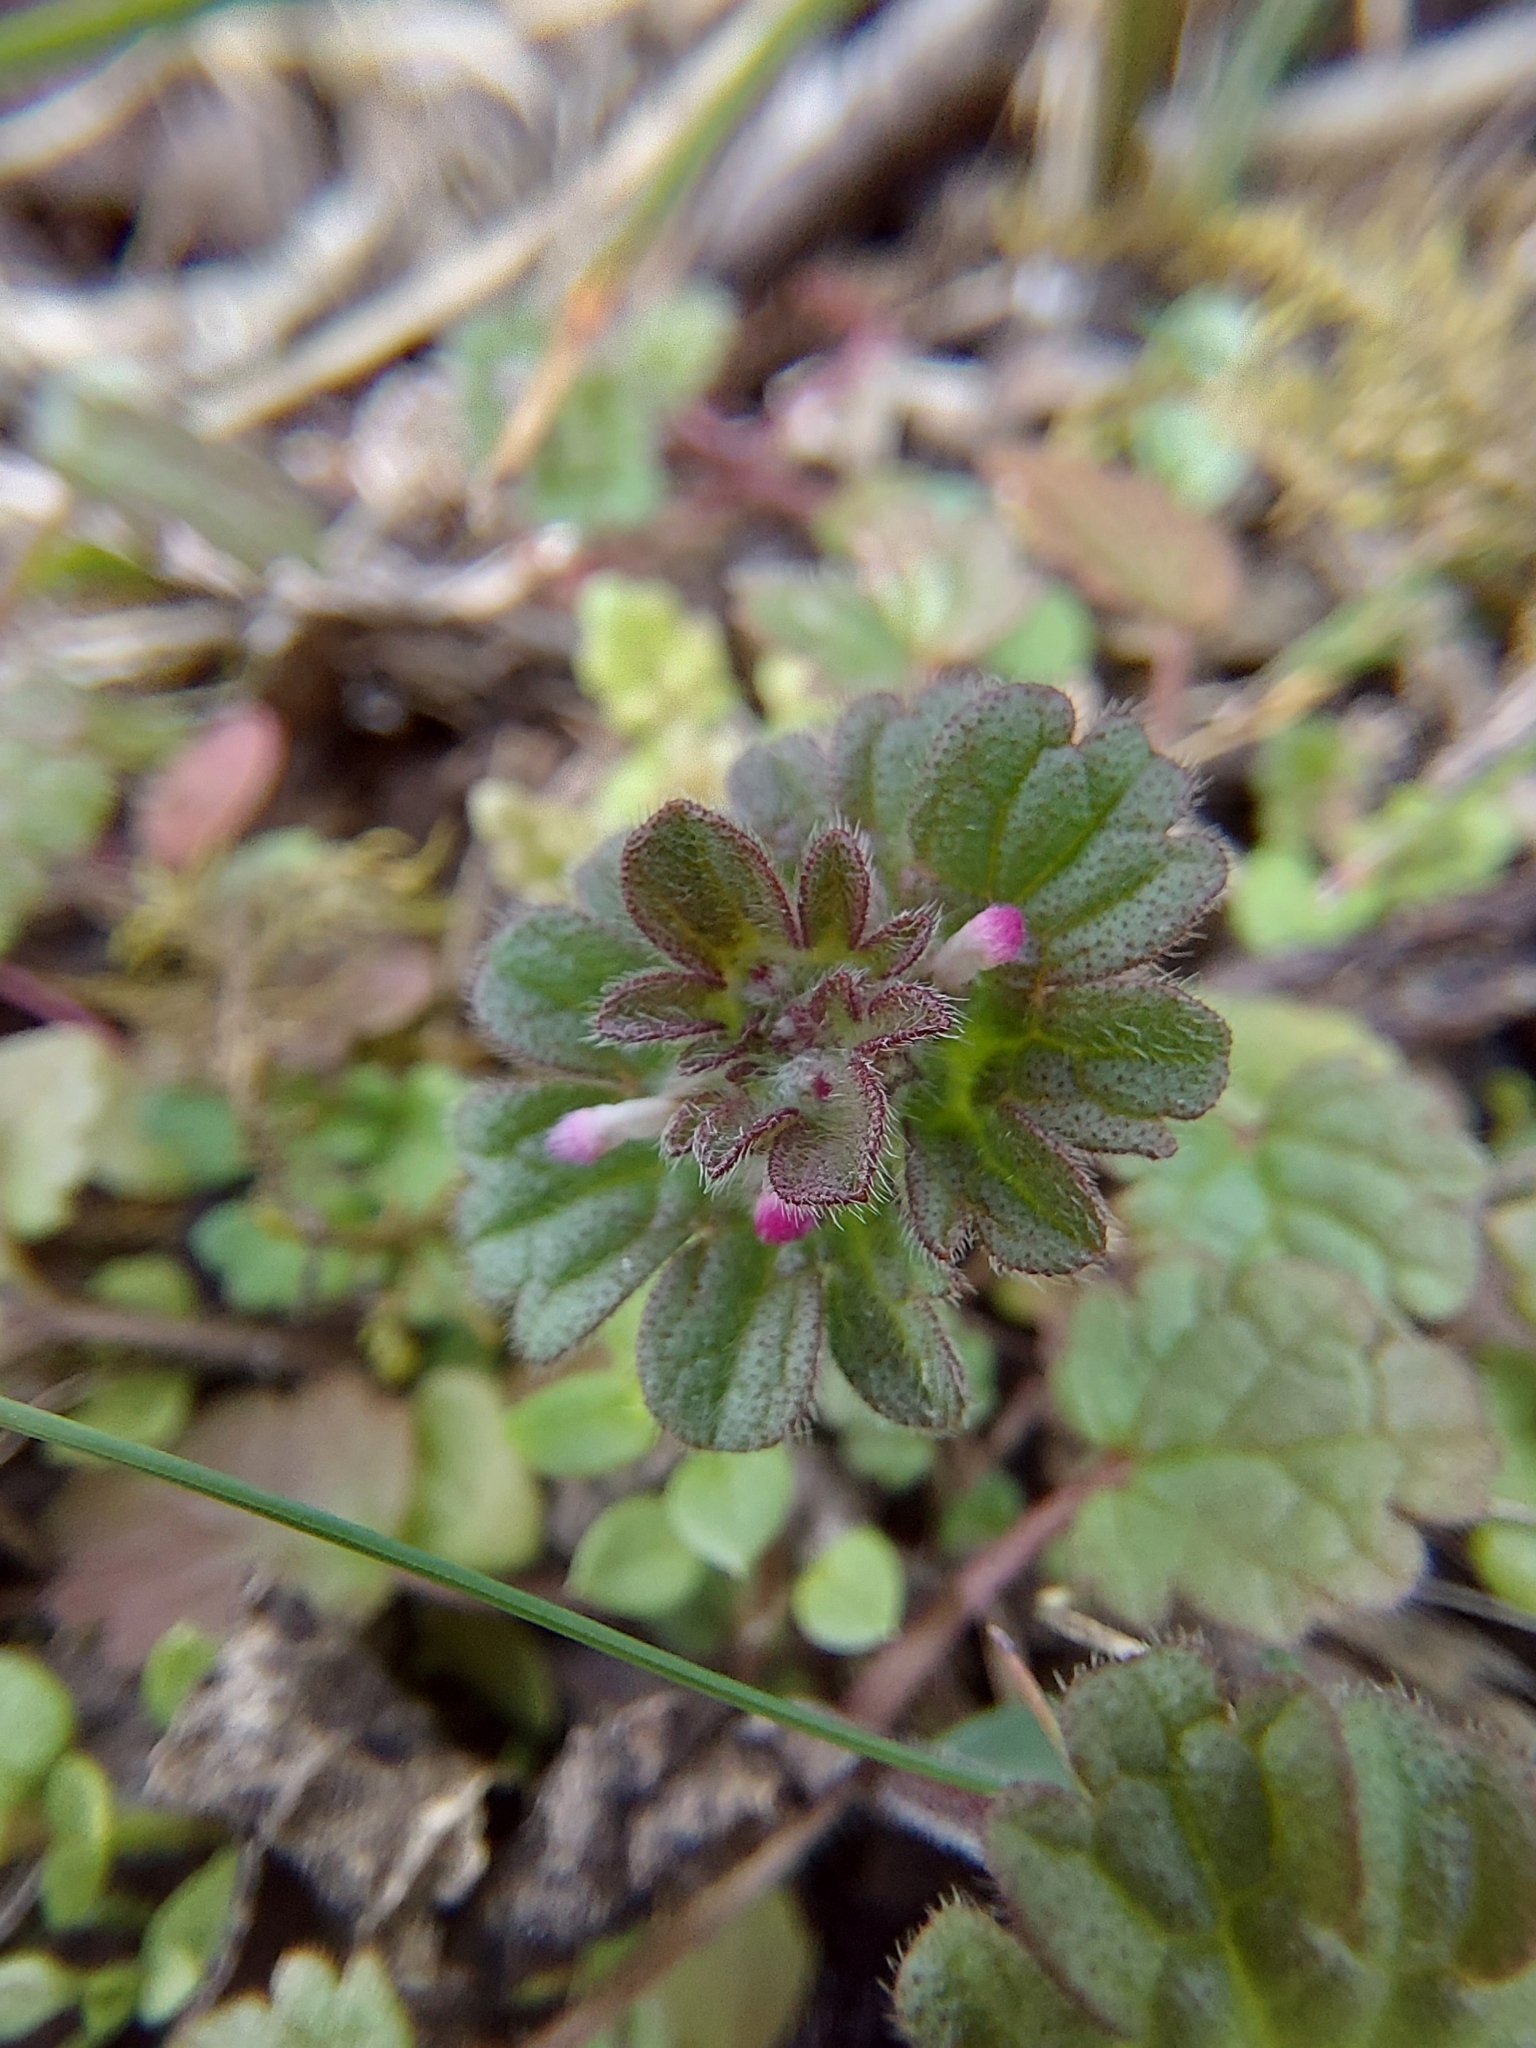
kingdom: Plantae
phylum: Tracheophyta
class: Magnoliopsida
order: Lamiales
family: Lamiaceae
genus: Lamium
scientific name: Lamium amplexicaule
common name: Henbit dead-nettle
